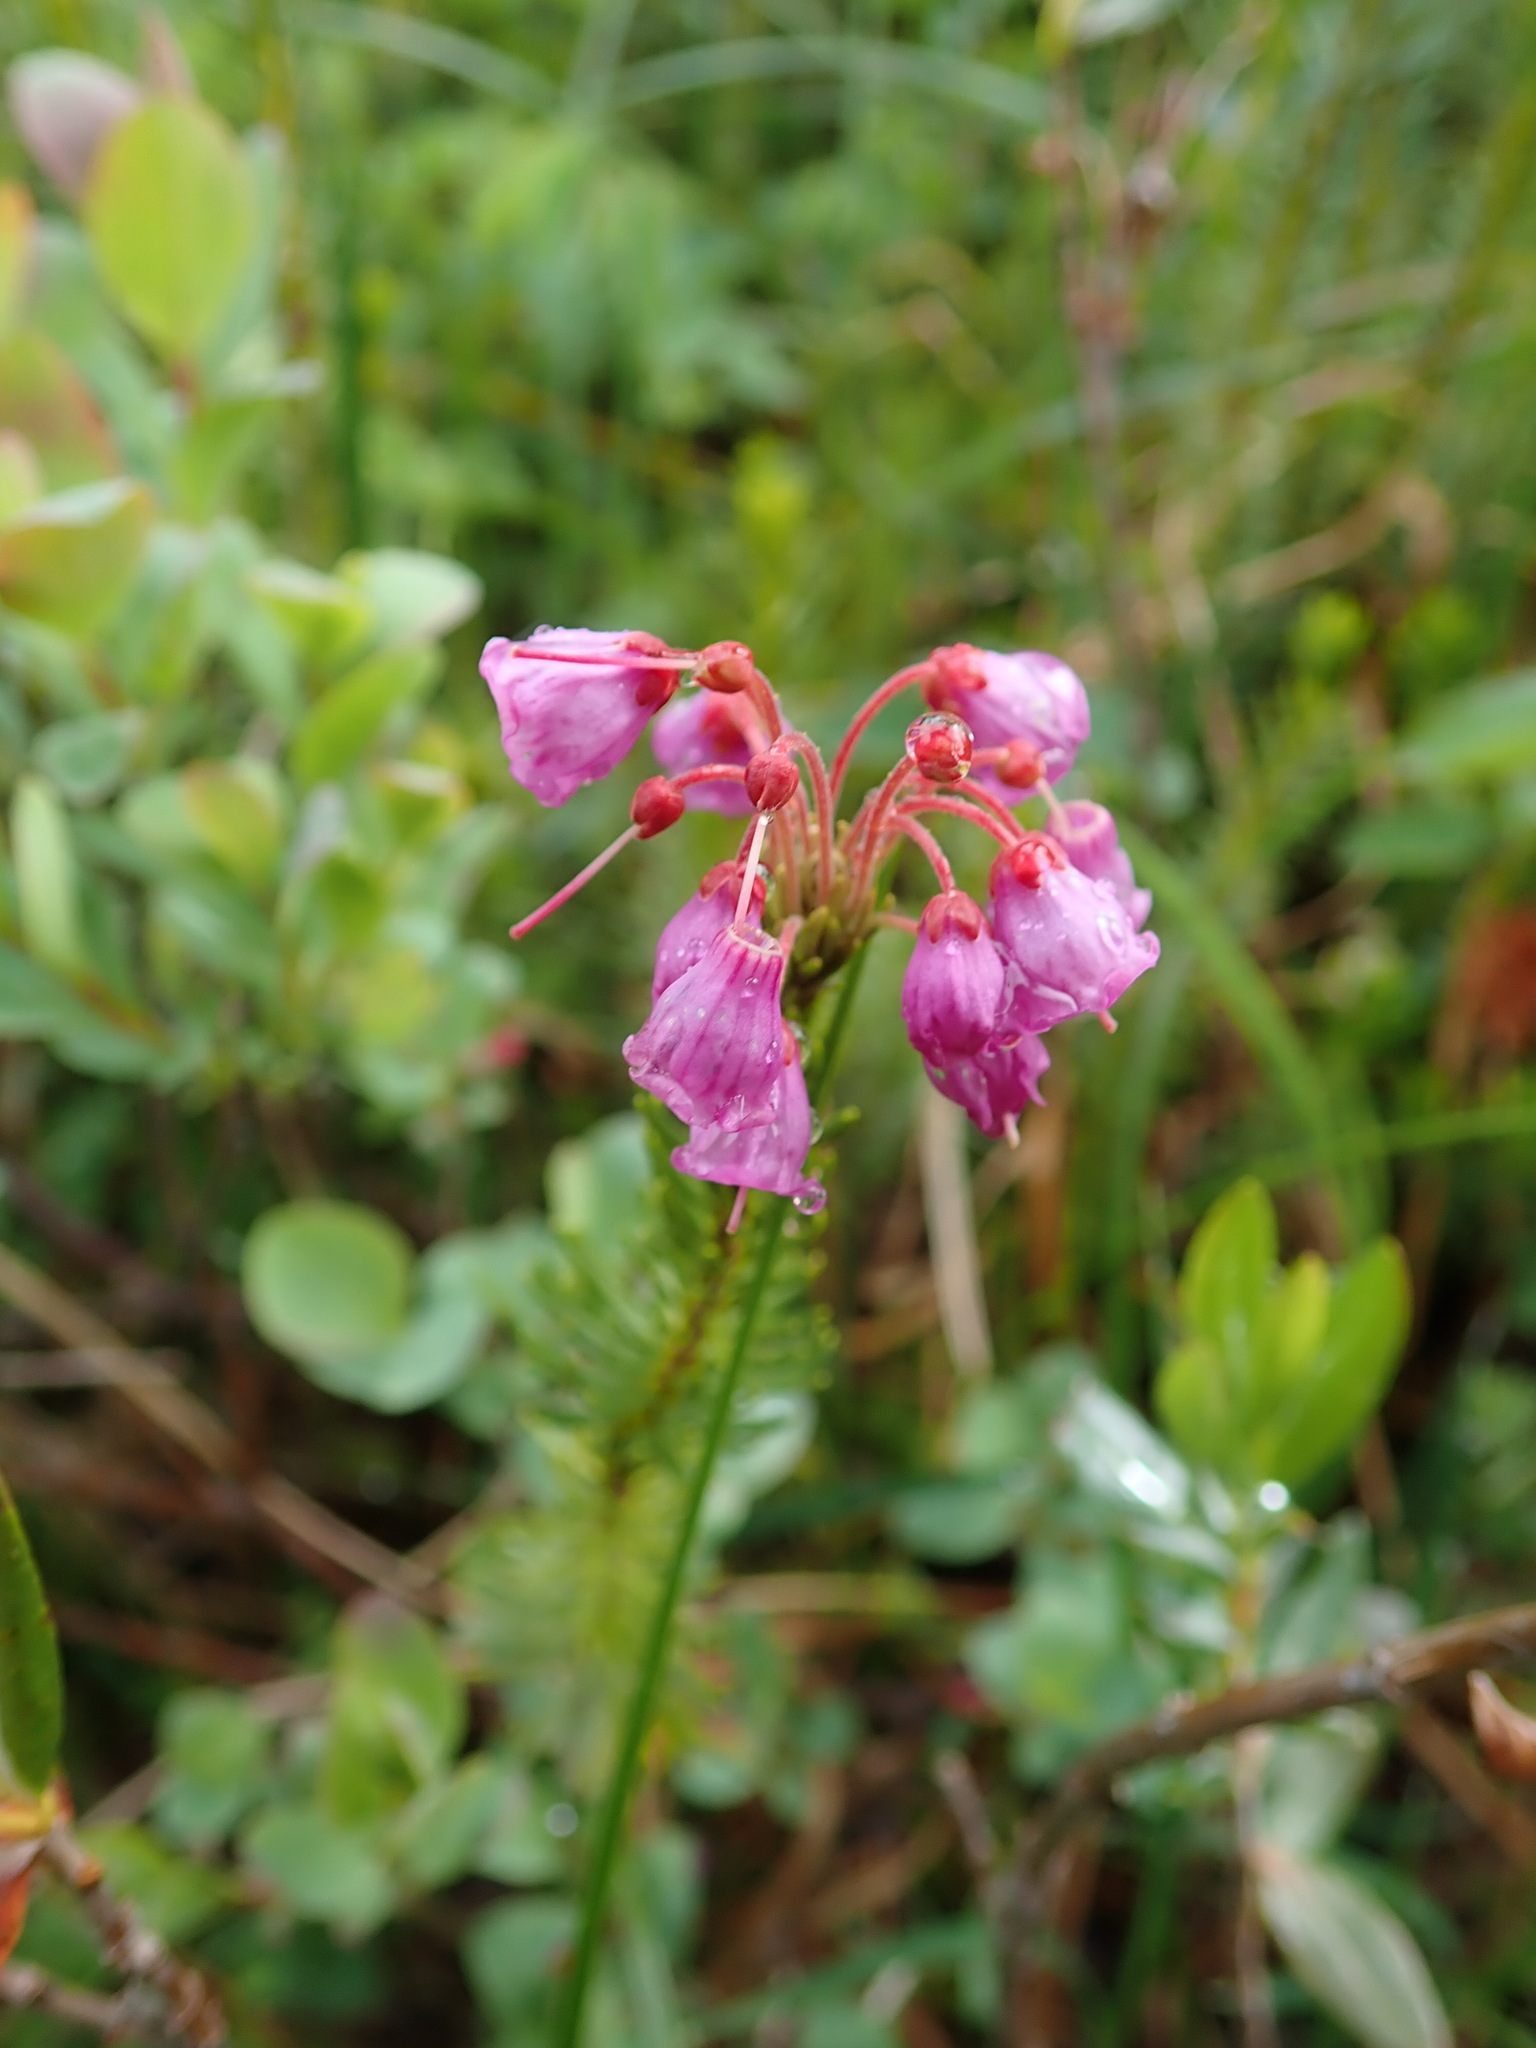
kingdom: Plantae
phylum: Tracheophyta
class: Magnoliopsida
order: Ericales
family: Ericaceae
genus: Phyllodoce
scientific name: Phyllodoce empetriformis
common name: Pink mountain heather
